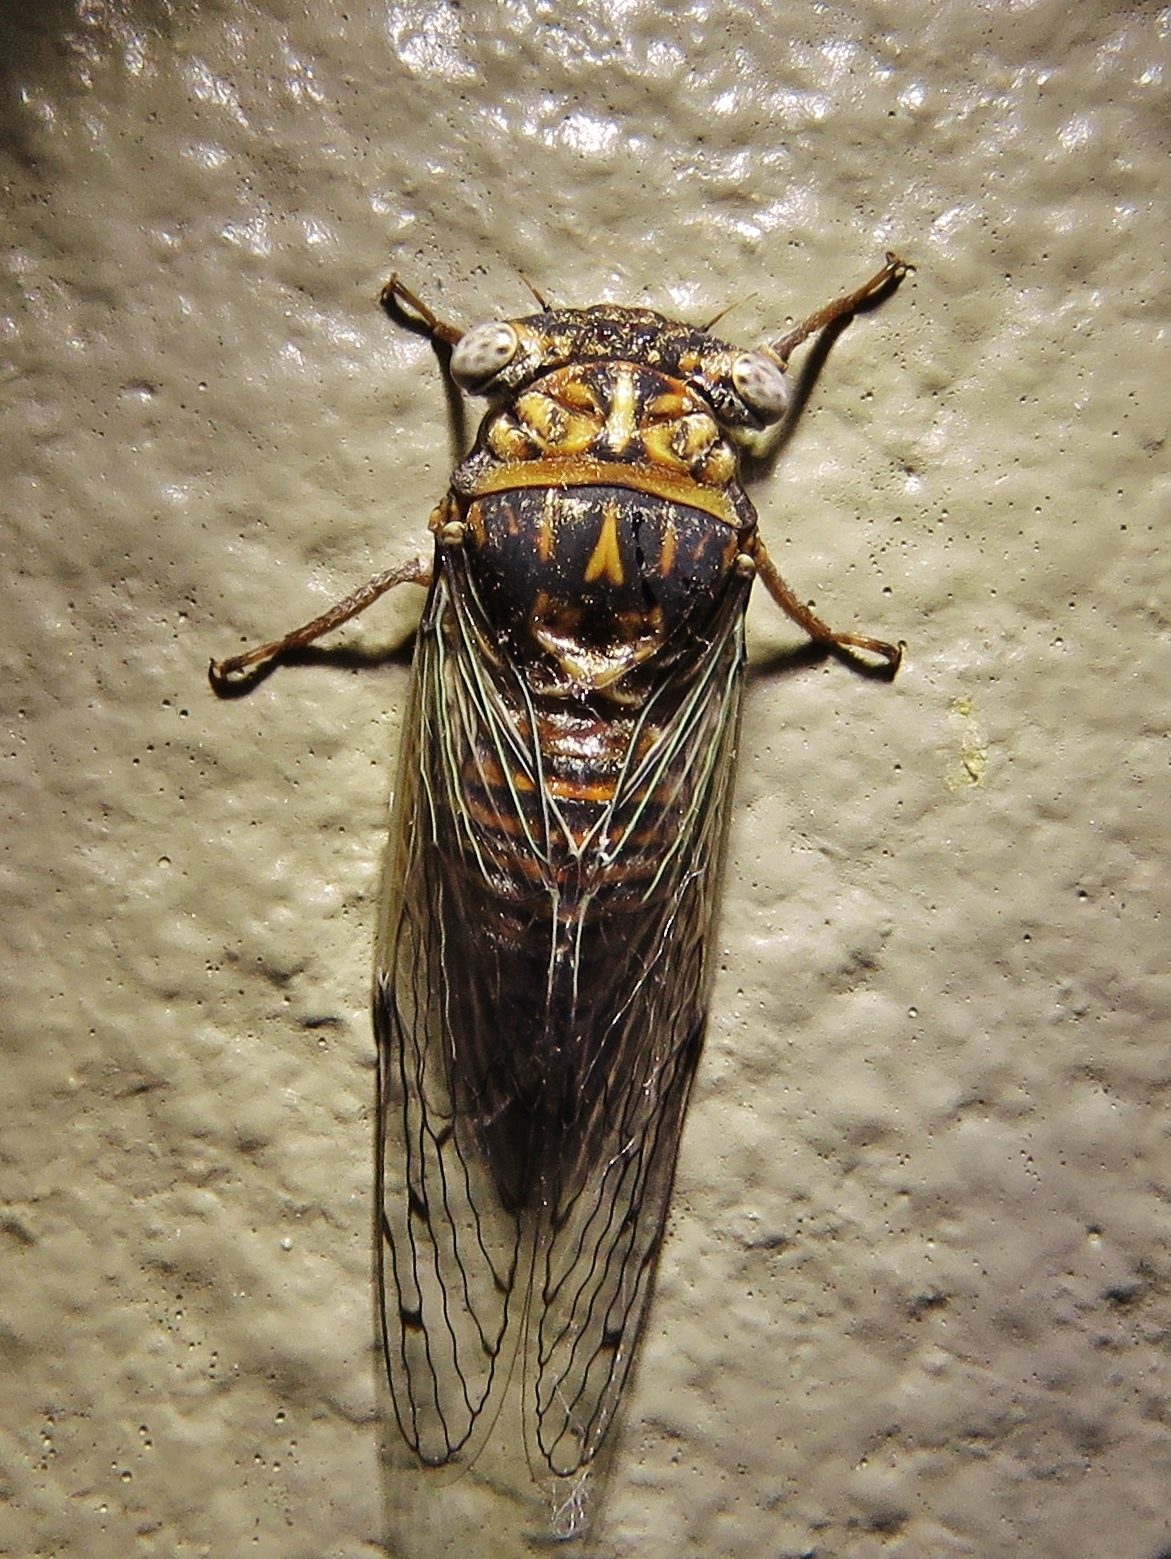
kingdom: Animalia
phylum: Arthropoda
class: Insecta
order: Hemiptera
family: Cicadidae
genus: Pacarina
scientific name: Pacarina puella
